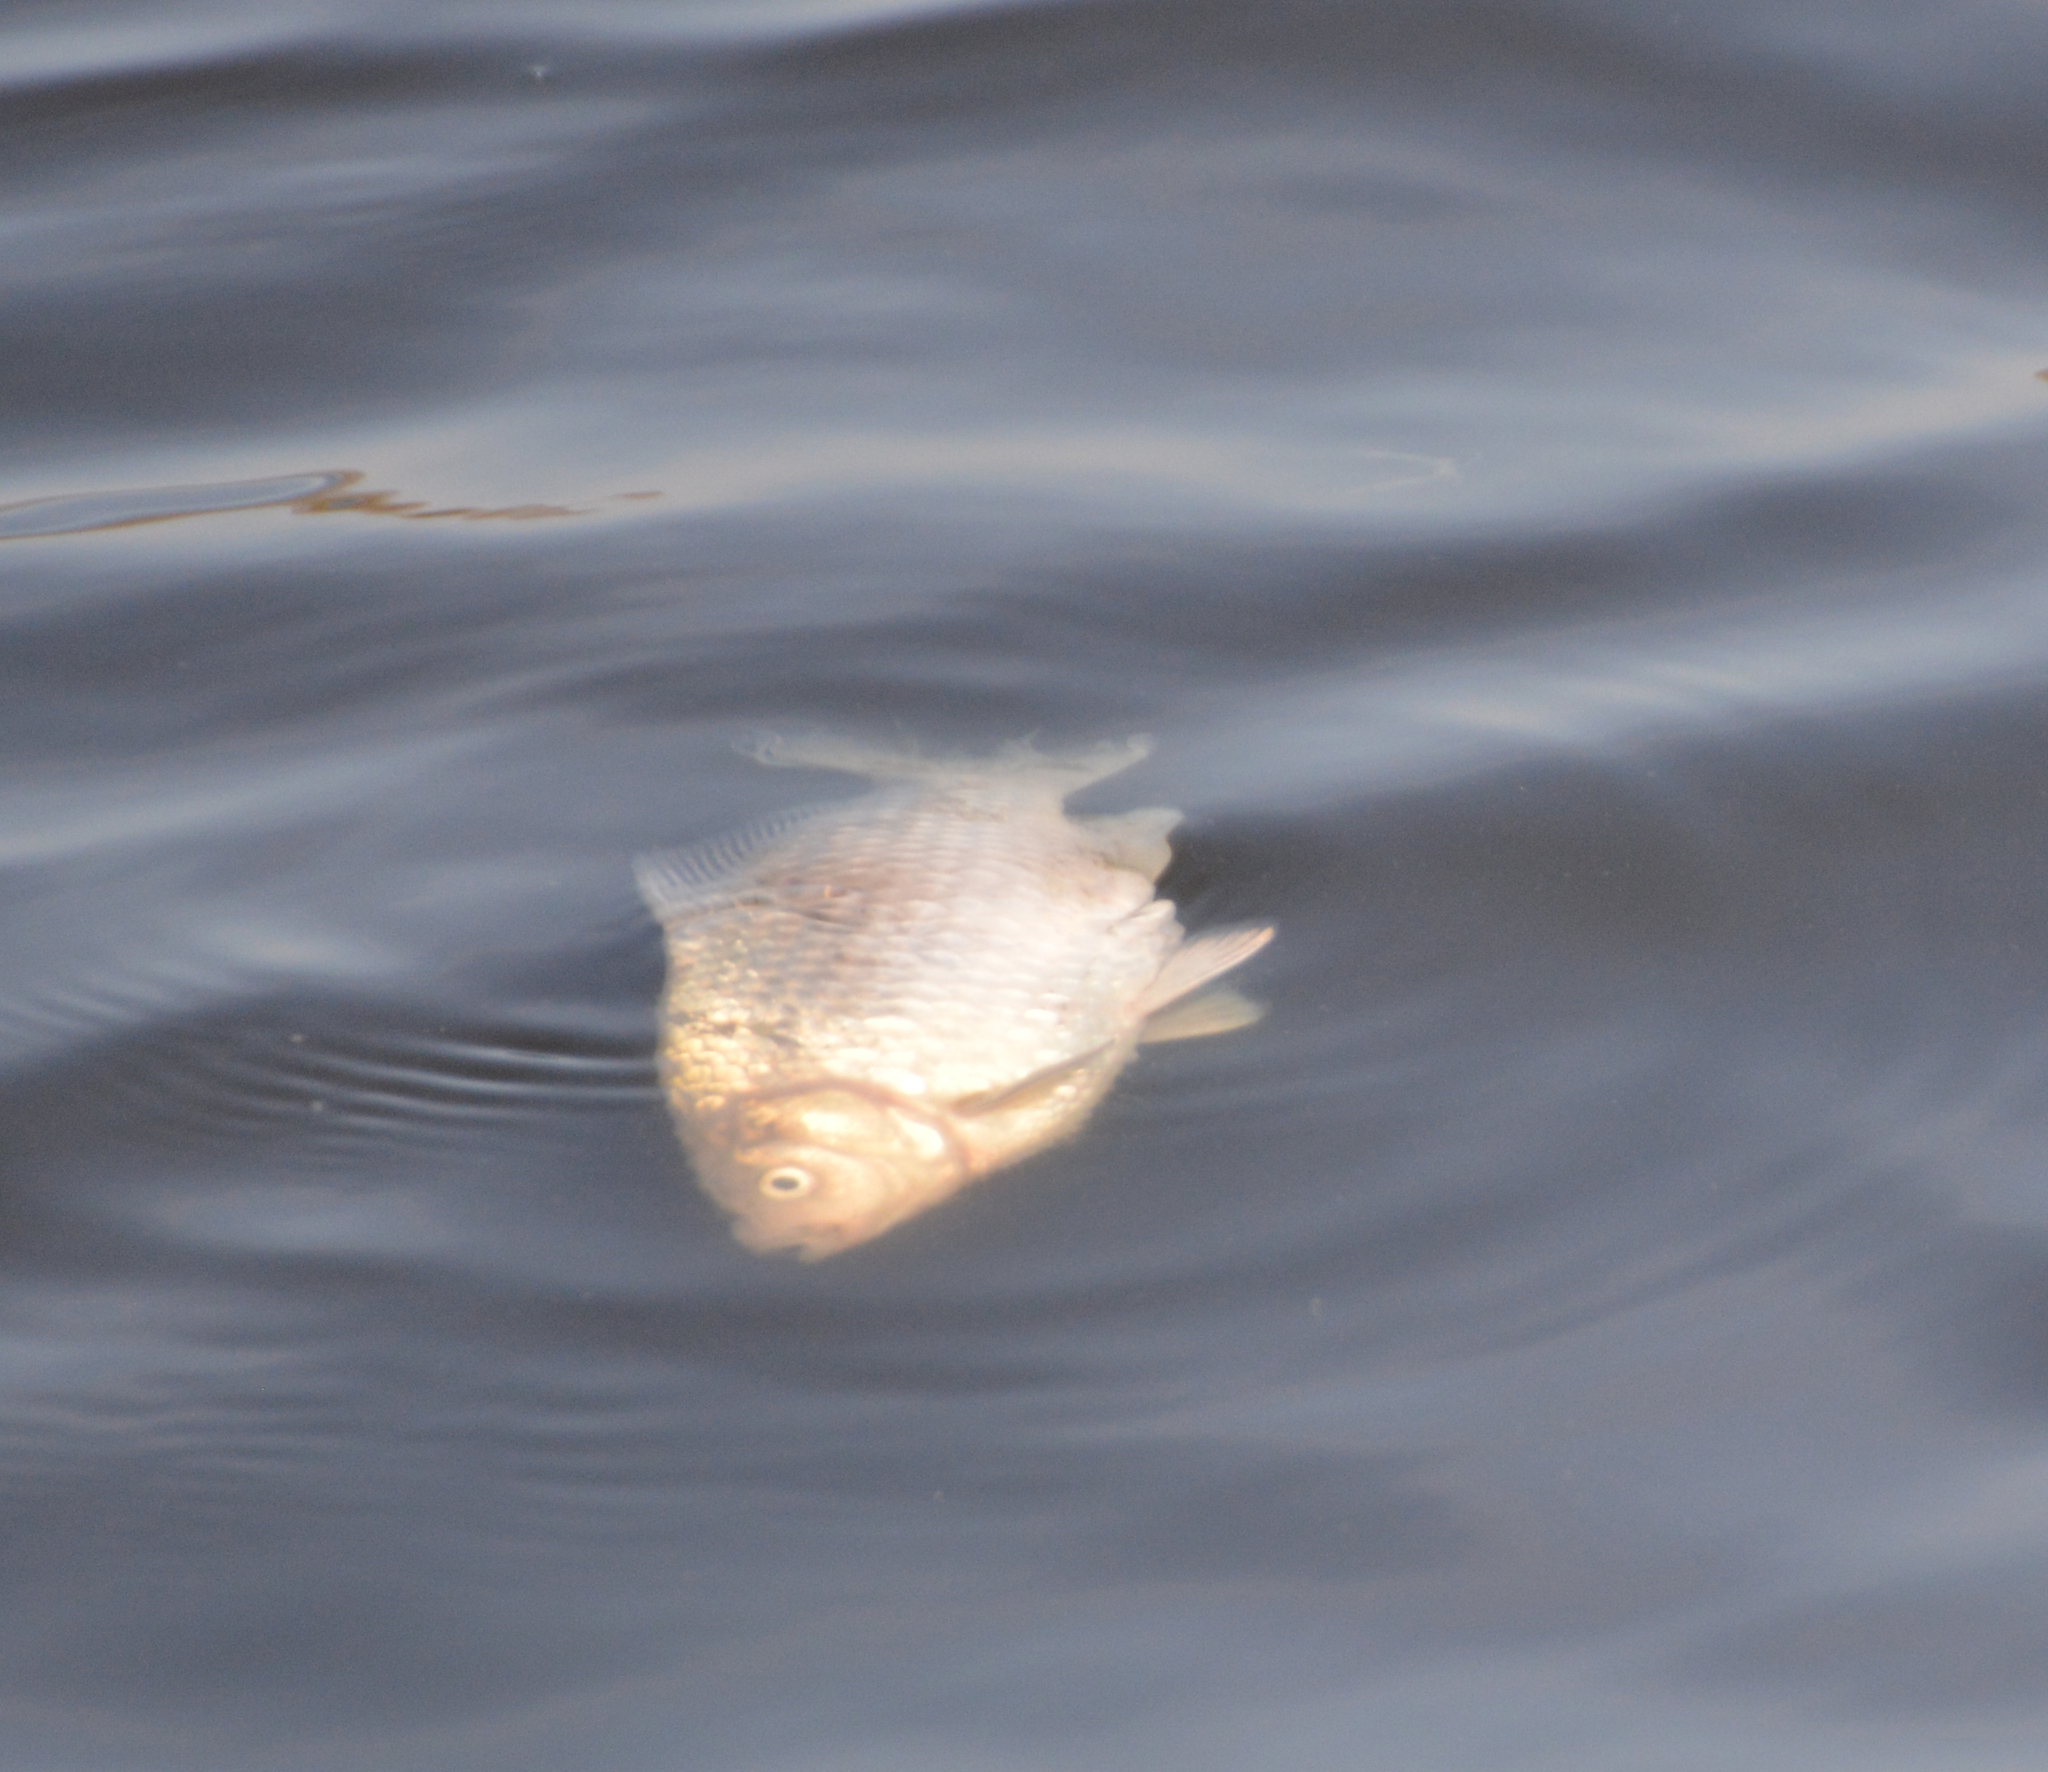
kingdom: Animalia
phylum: Chordata
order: Cypriniformes
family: Cyprinidae
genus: Carassius
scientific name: Carassius gibelio
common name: Prussian carp
